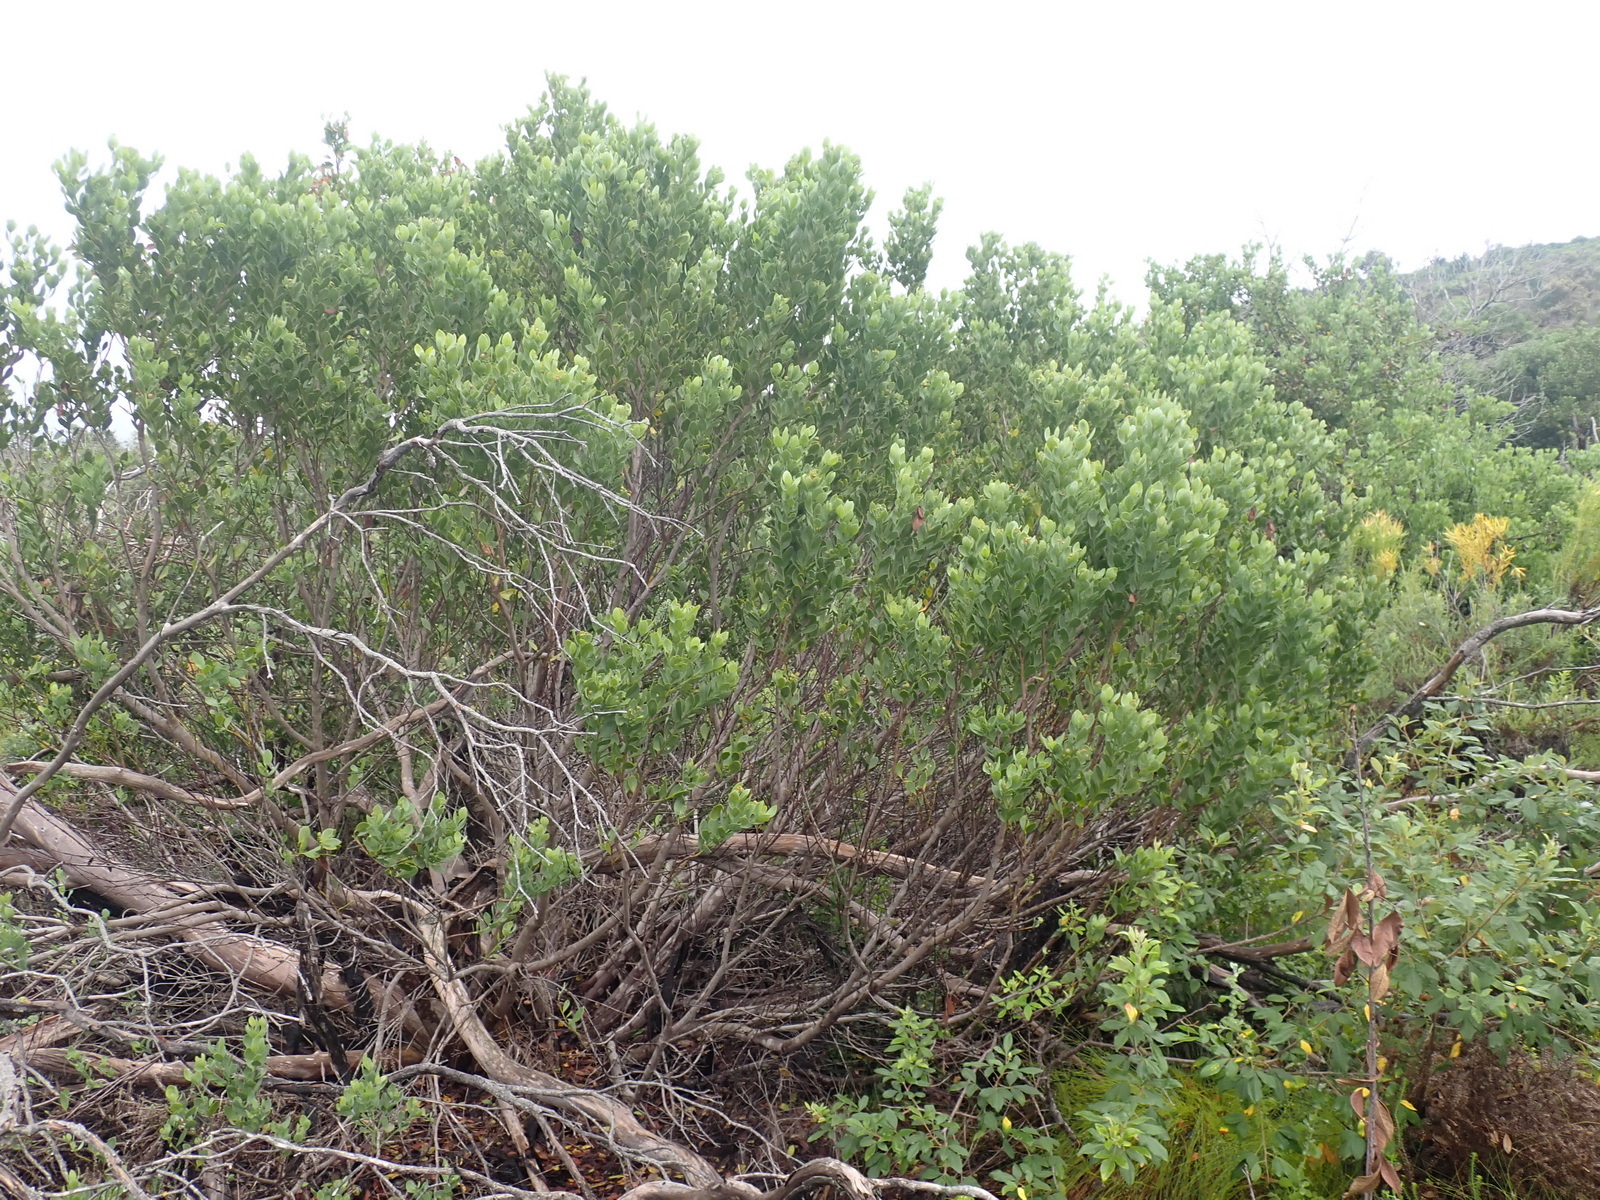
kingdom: Plantae
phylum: Tracheophyta
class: Magnoliopsida
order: Santalales
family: Santalaceae
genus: Osyris
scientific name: Osyris compressa
